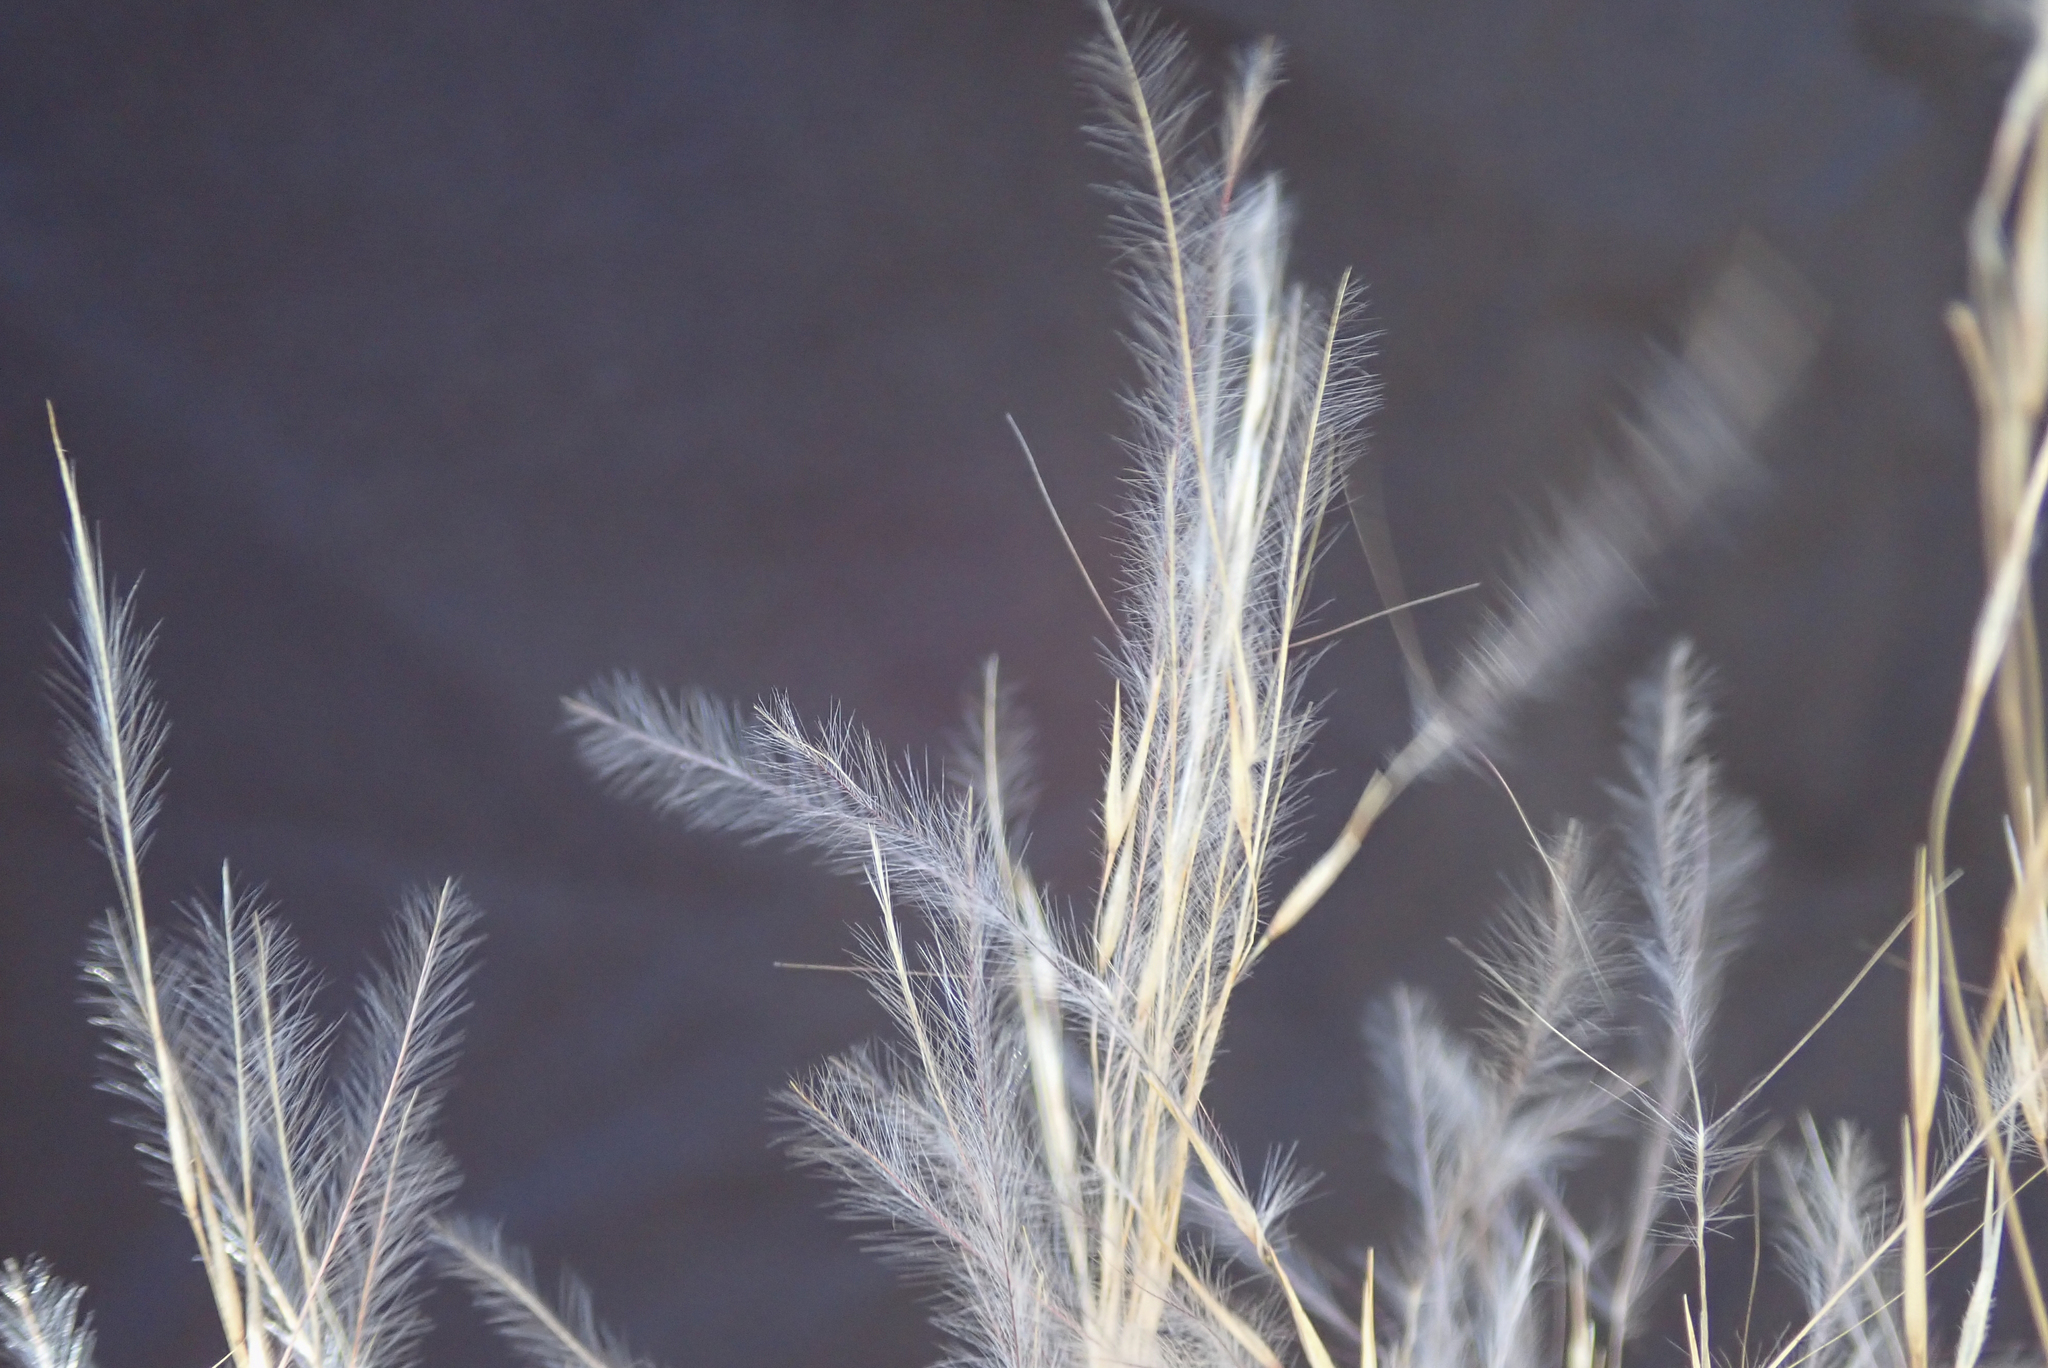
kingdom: Plantae
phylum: Tracheophyta
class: Liliopsida
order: Poales
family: Poaceae
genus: Stipagrostis
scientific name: Stipagrostis uniplumis
